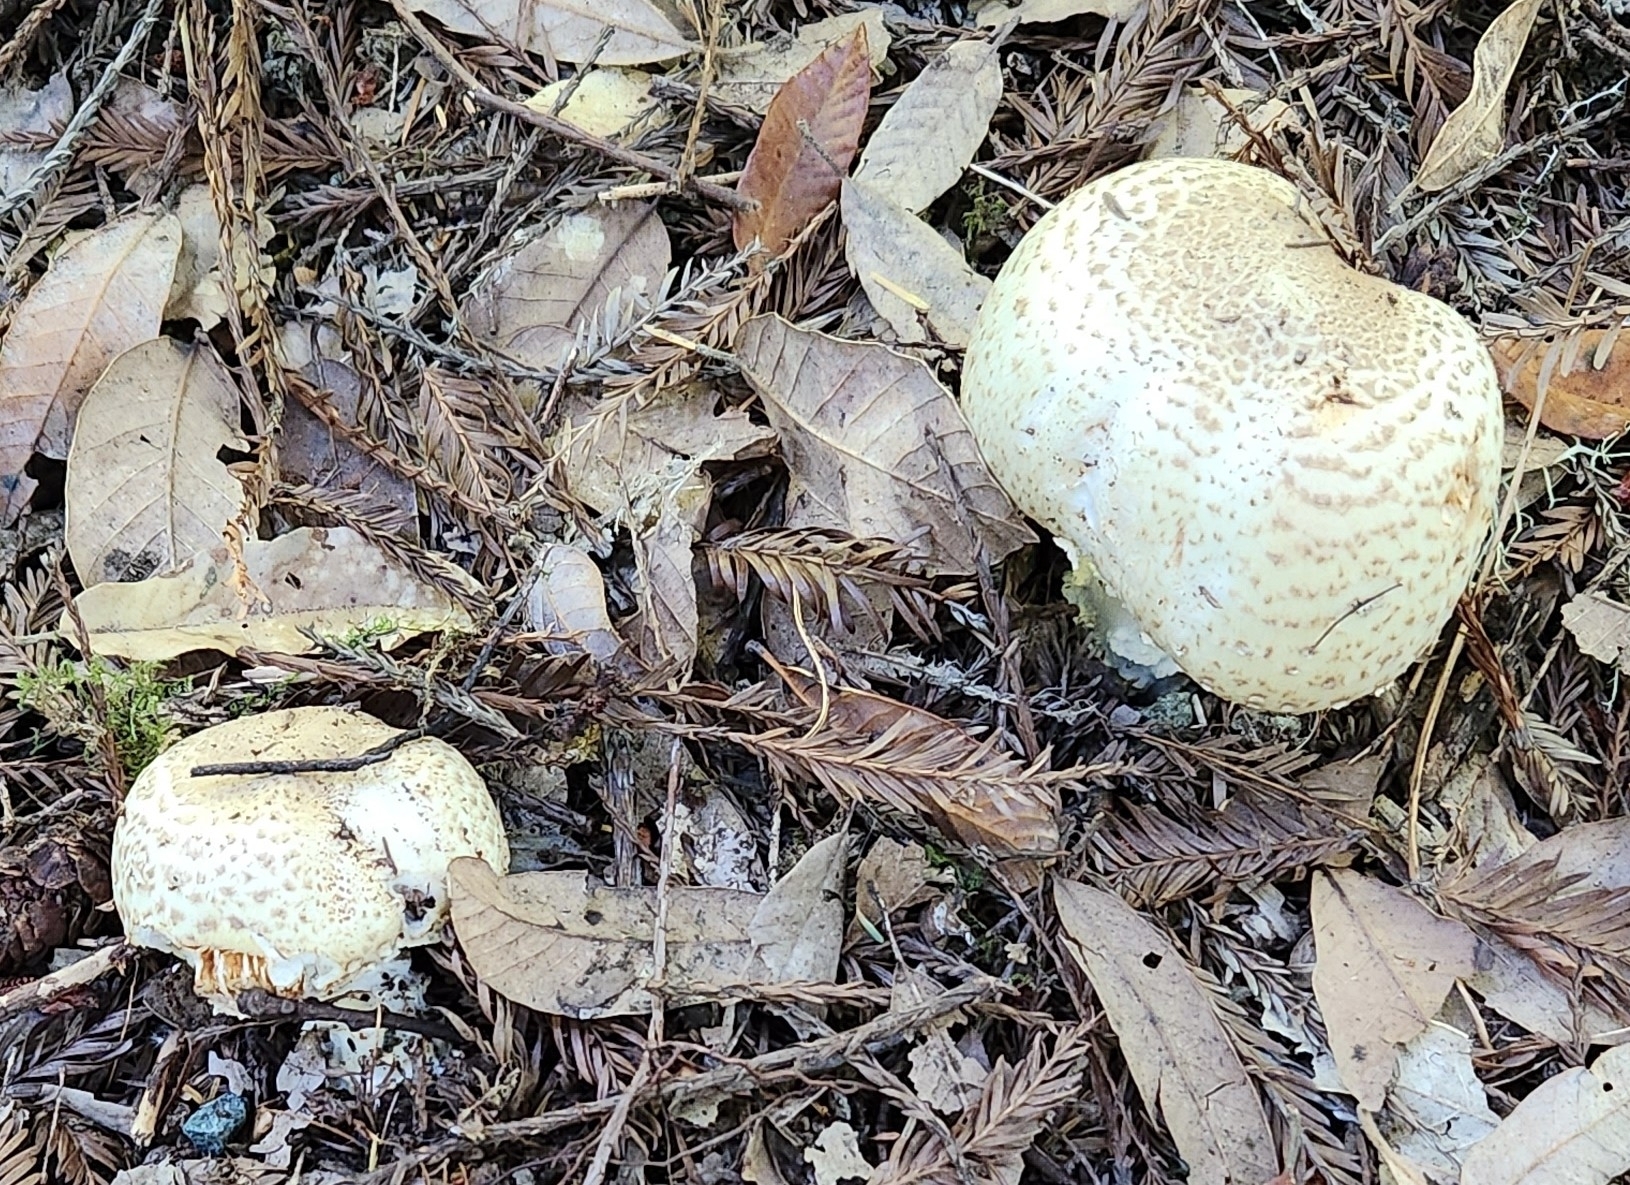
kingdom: Fungi
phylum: Basidiomycota
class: Agaricomycetes
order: Agaricales
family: Agaricaceae
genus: Agaricus
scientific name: Agaricus augustus
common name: Prince
